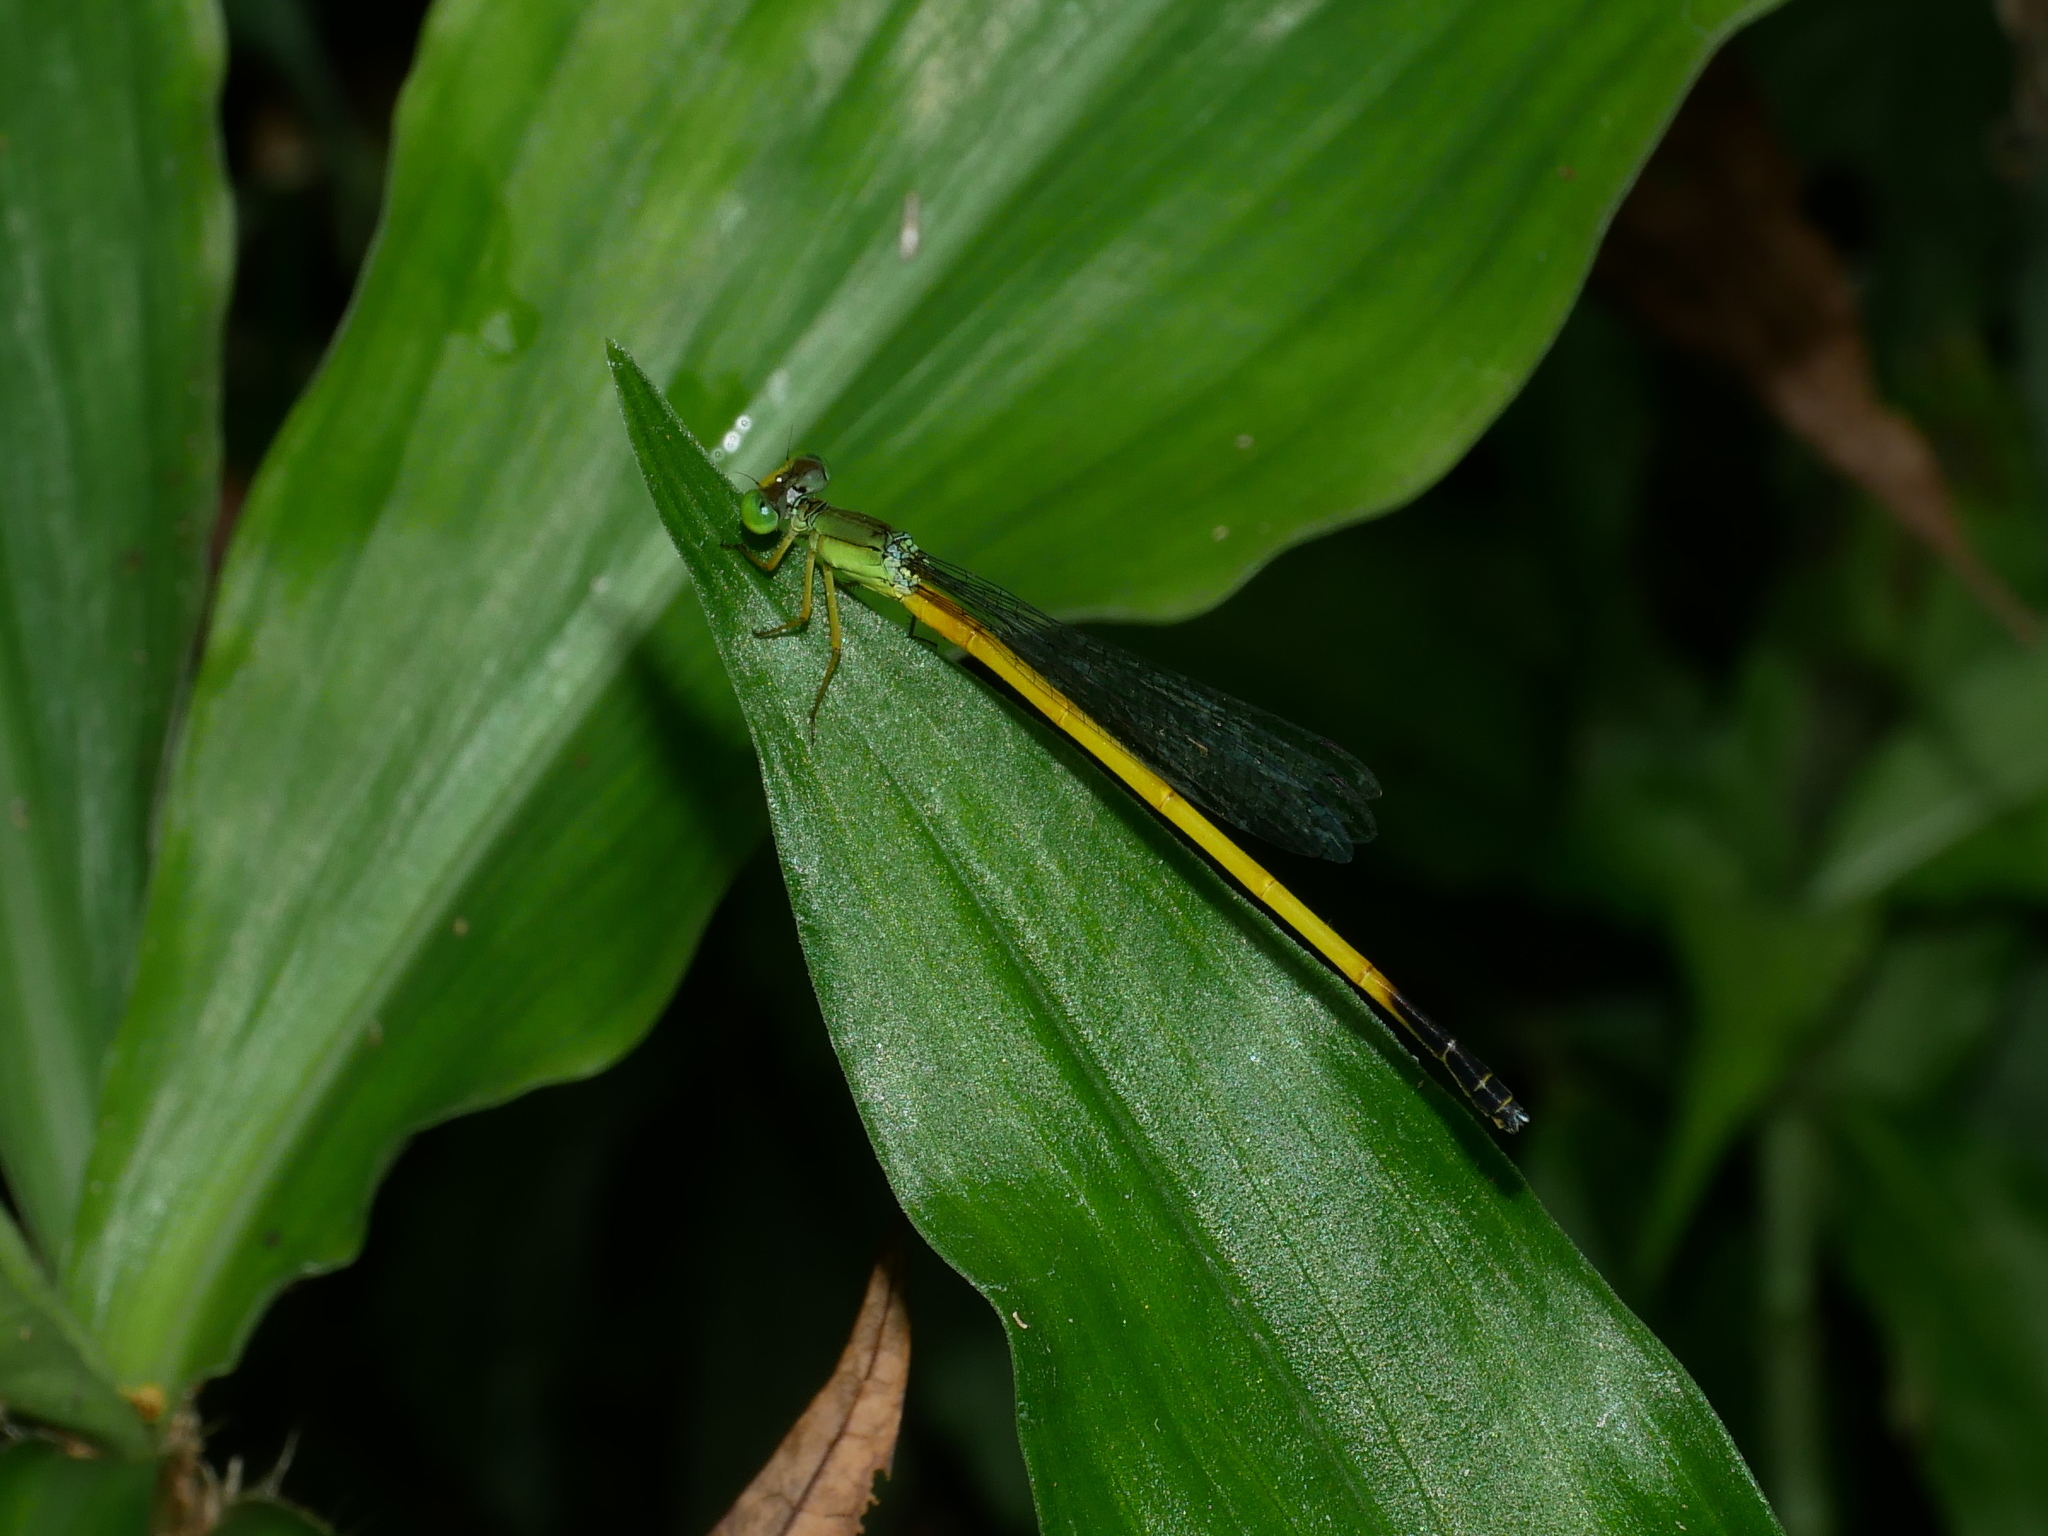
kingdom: Animalia
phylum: Arthropoda
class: Insecta
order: Odonata
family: Coenagrionidae
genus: Ceriagrion
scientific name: Ceriagrion fallax
